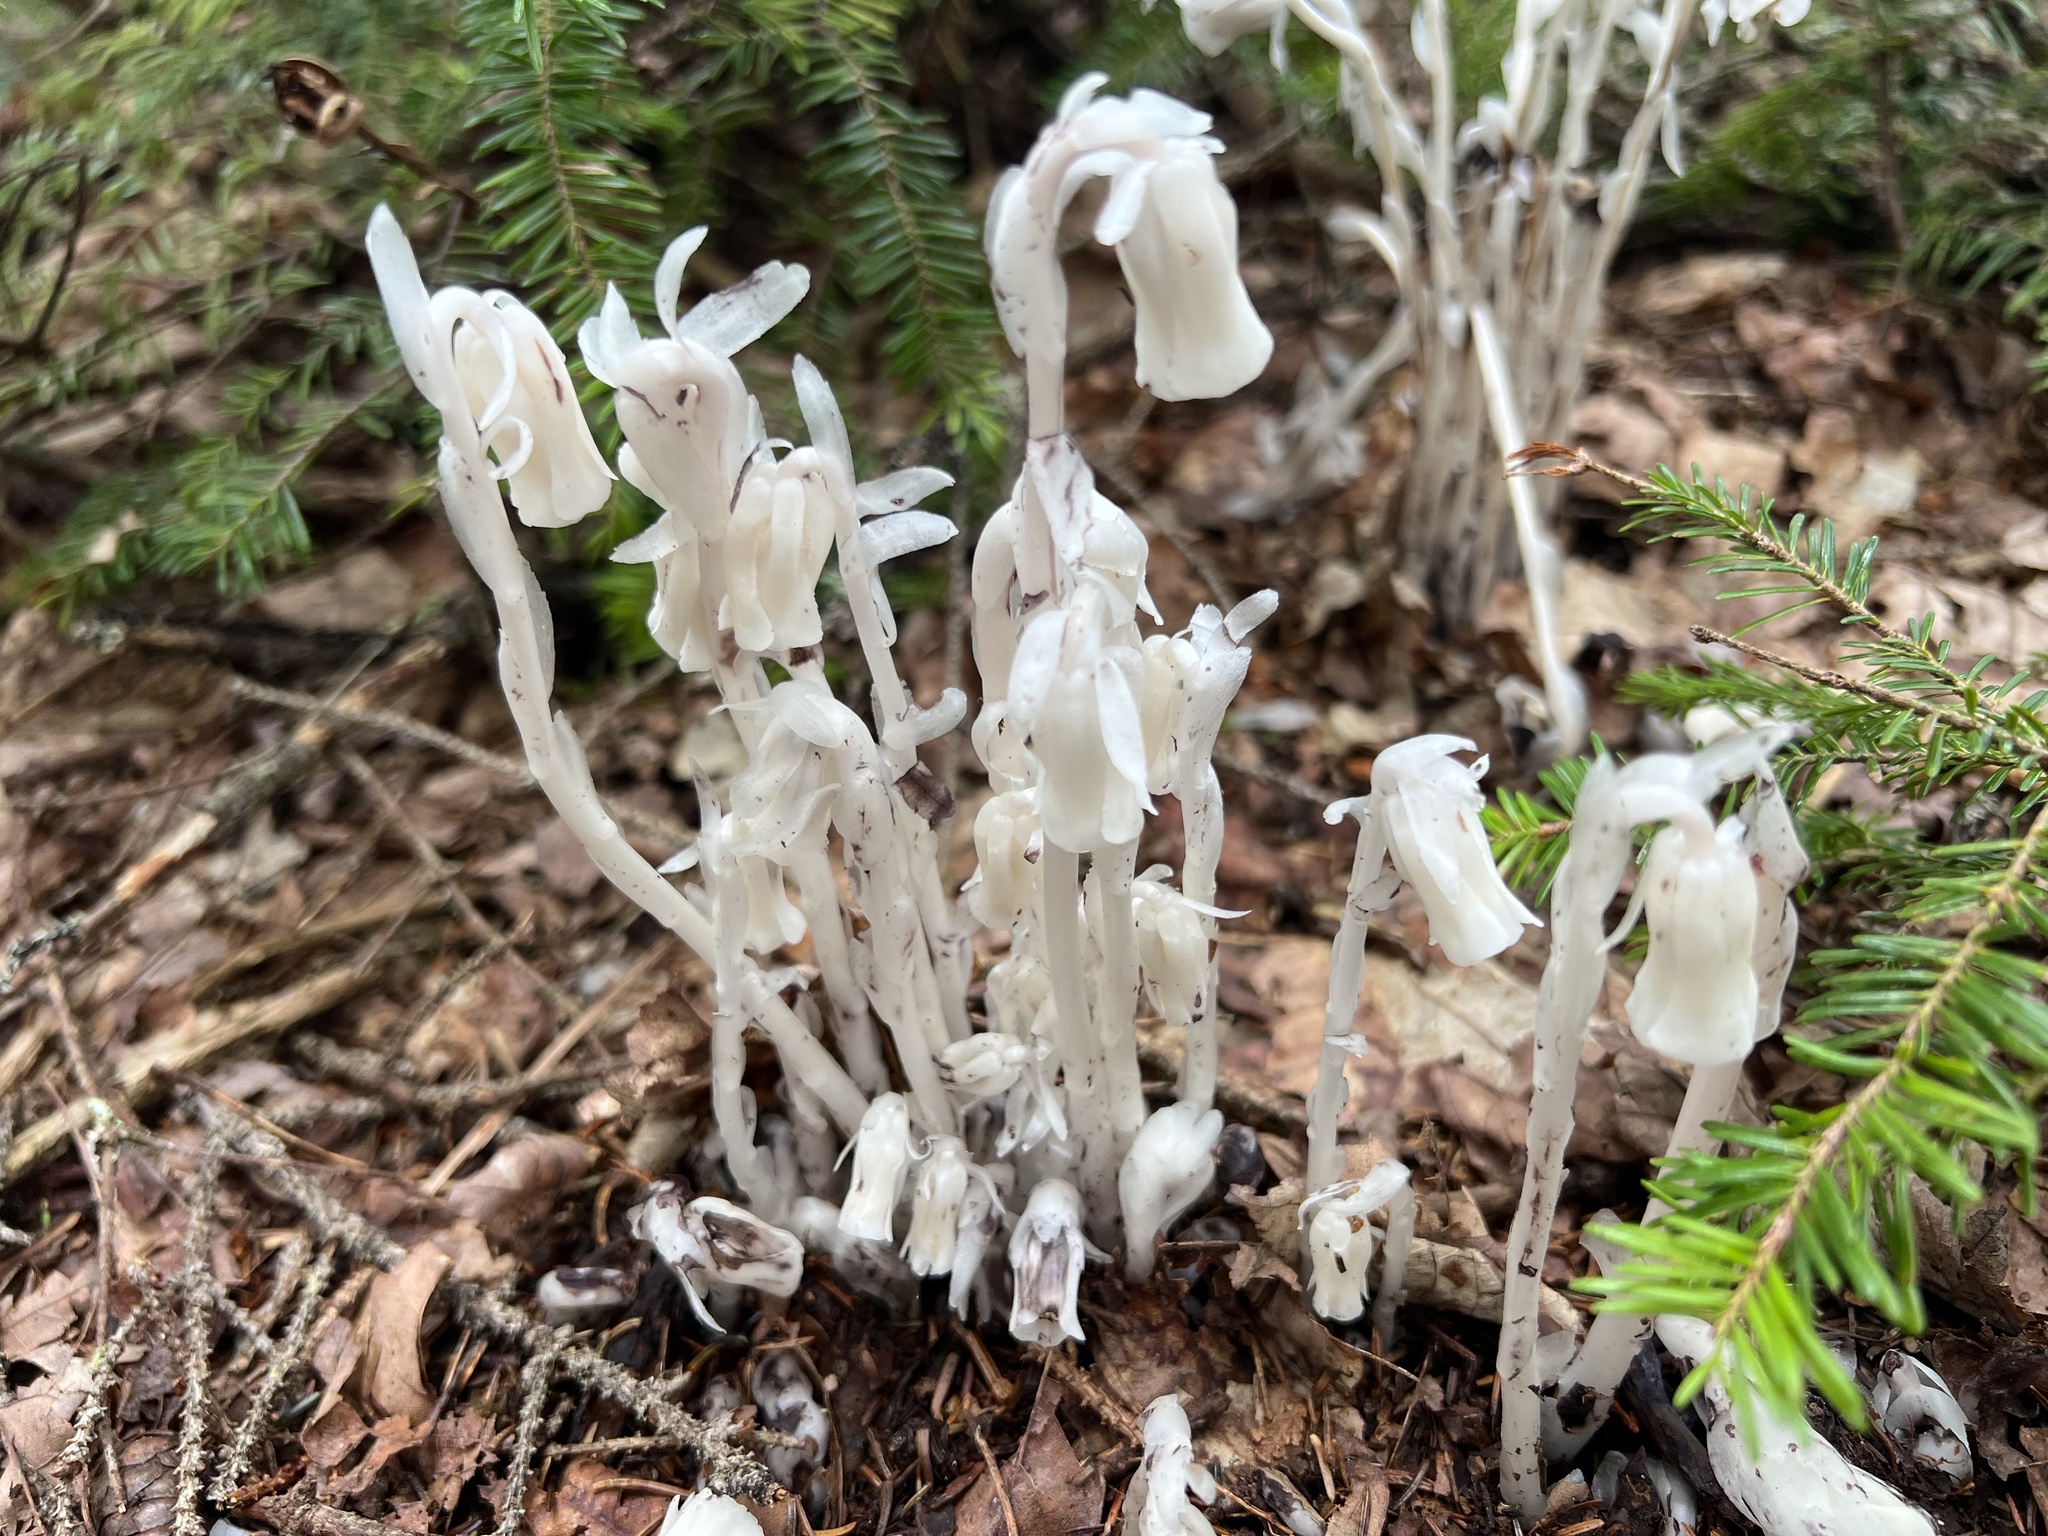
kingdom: Plantae
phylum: Tracheophyta
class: Magnoliopsida
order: Ericales
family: Ericaceae
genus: Monotropa
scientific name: Monotropa uniflora
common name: Convulsion root
